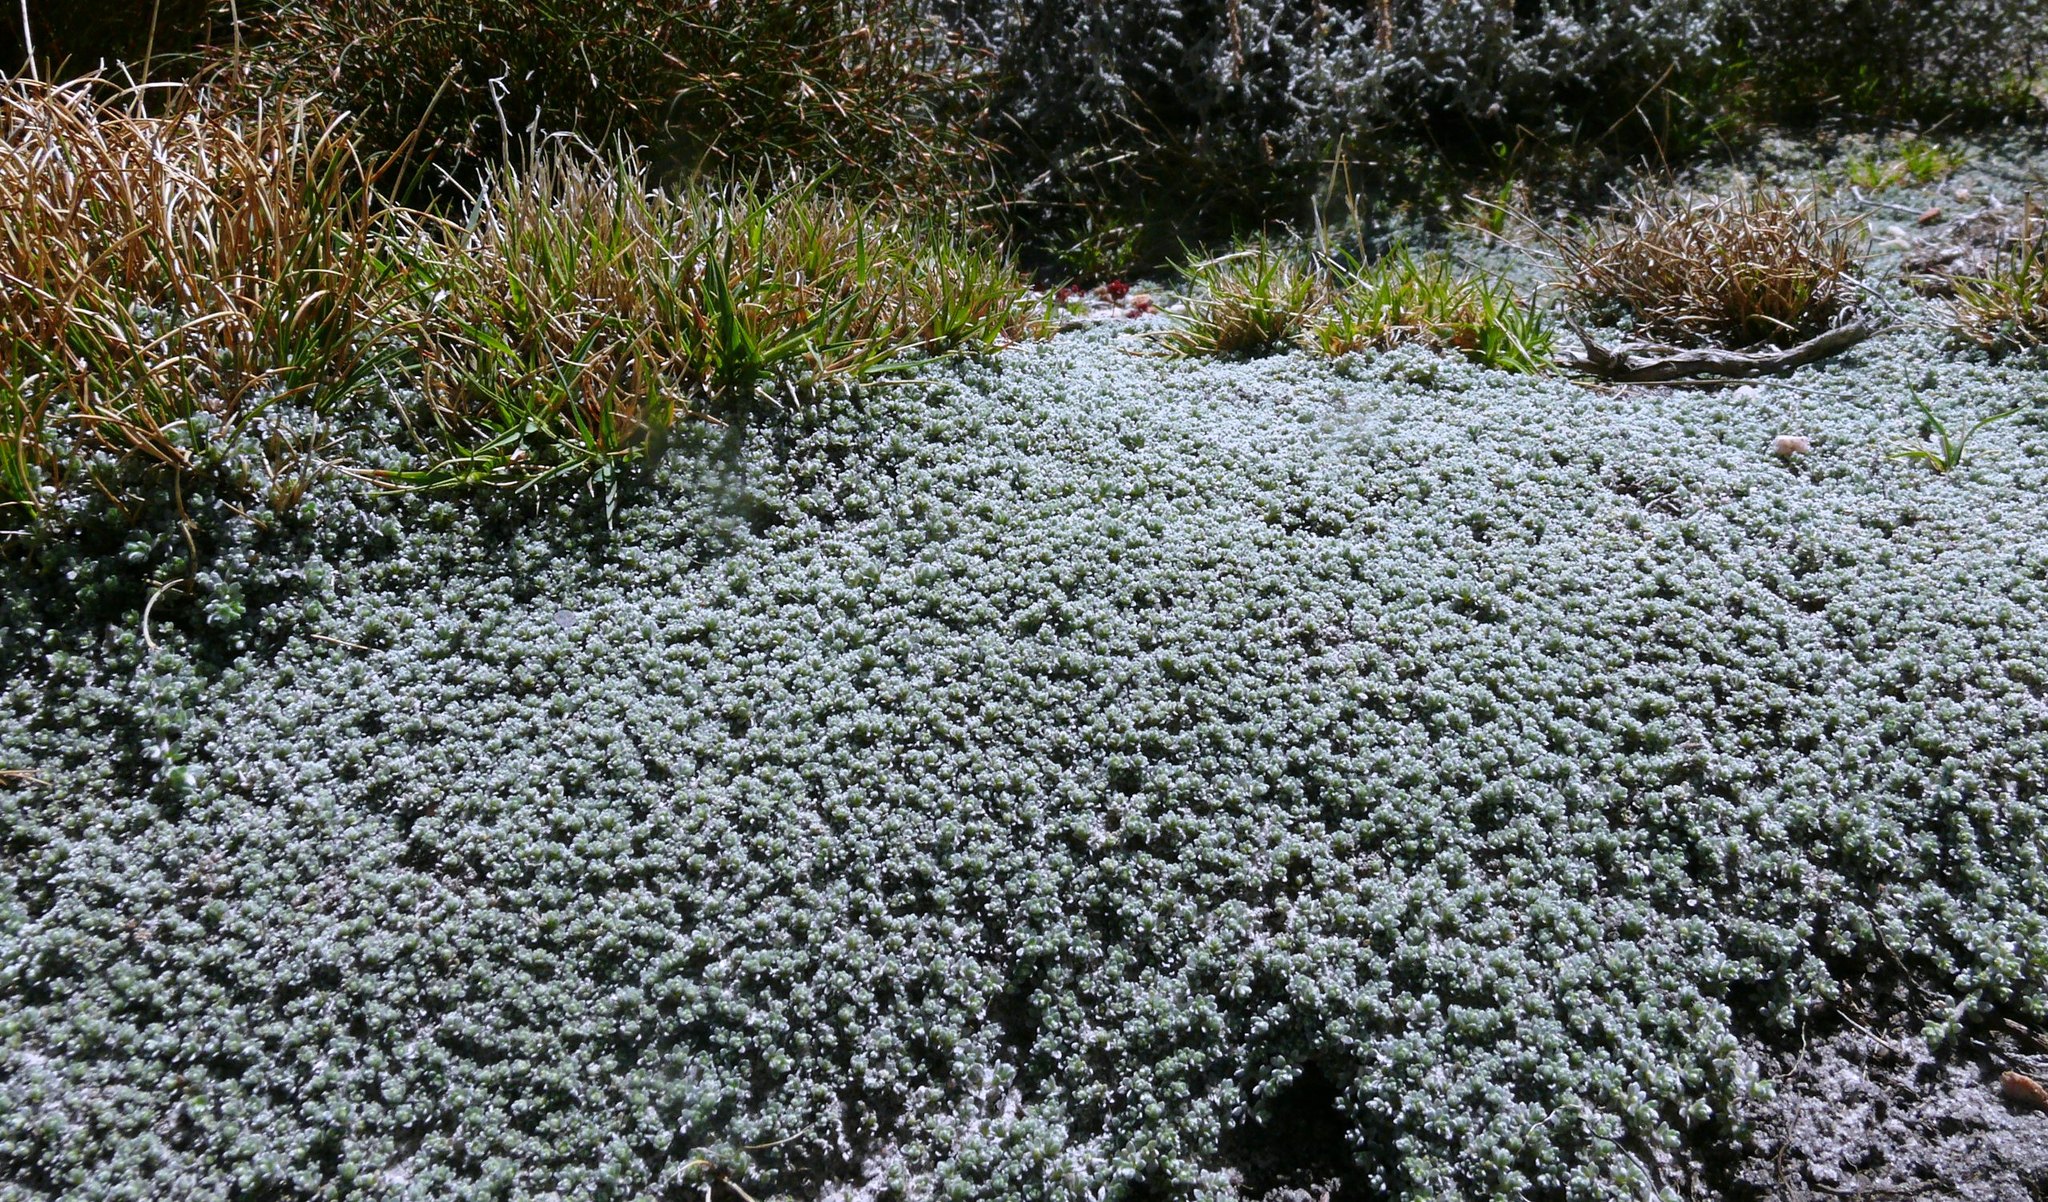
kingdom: Plantae
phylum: Tracheophyta
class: Magnoliopsida
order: Fabales
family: Fabaceae
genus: Aspalathus
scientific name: Aspalathus bodkinii
